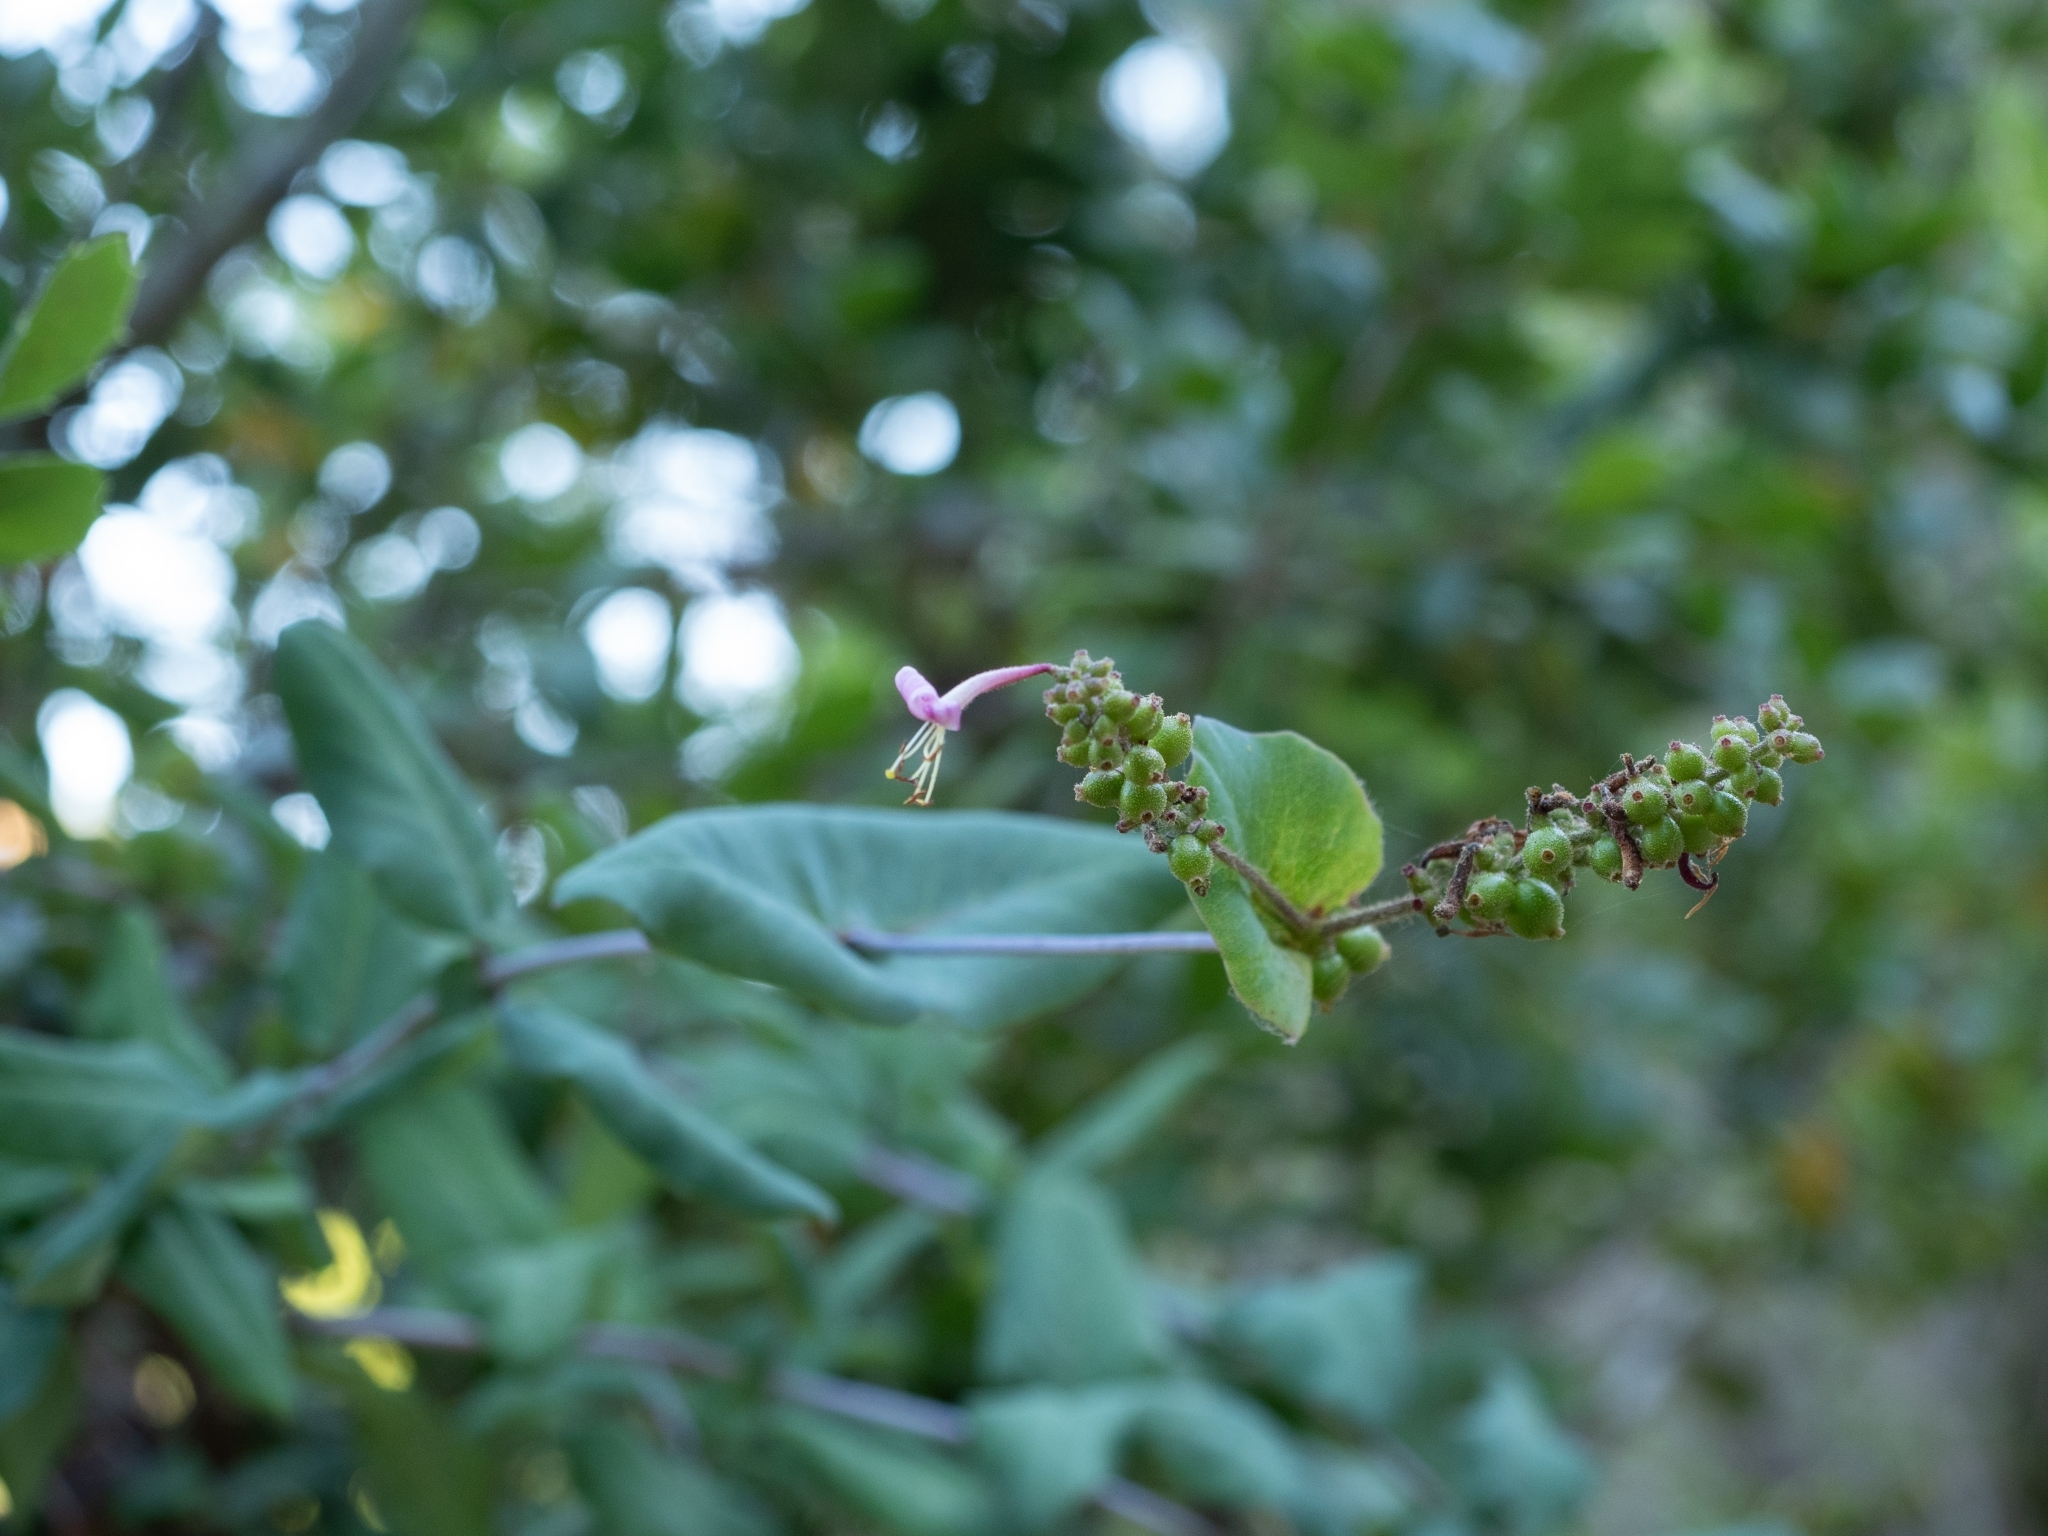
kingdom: Plantae
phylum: Tracheophyta
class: Magnoliopsida
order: Dipsacales
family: Caprifoliaceae
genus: Lonicera
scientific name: Lonicera hispidula
